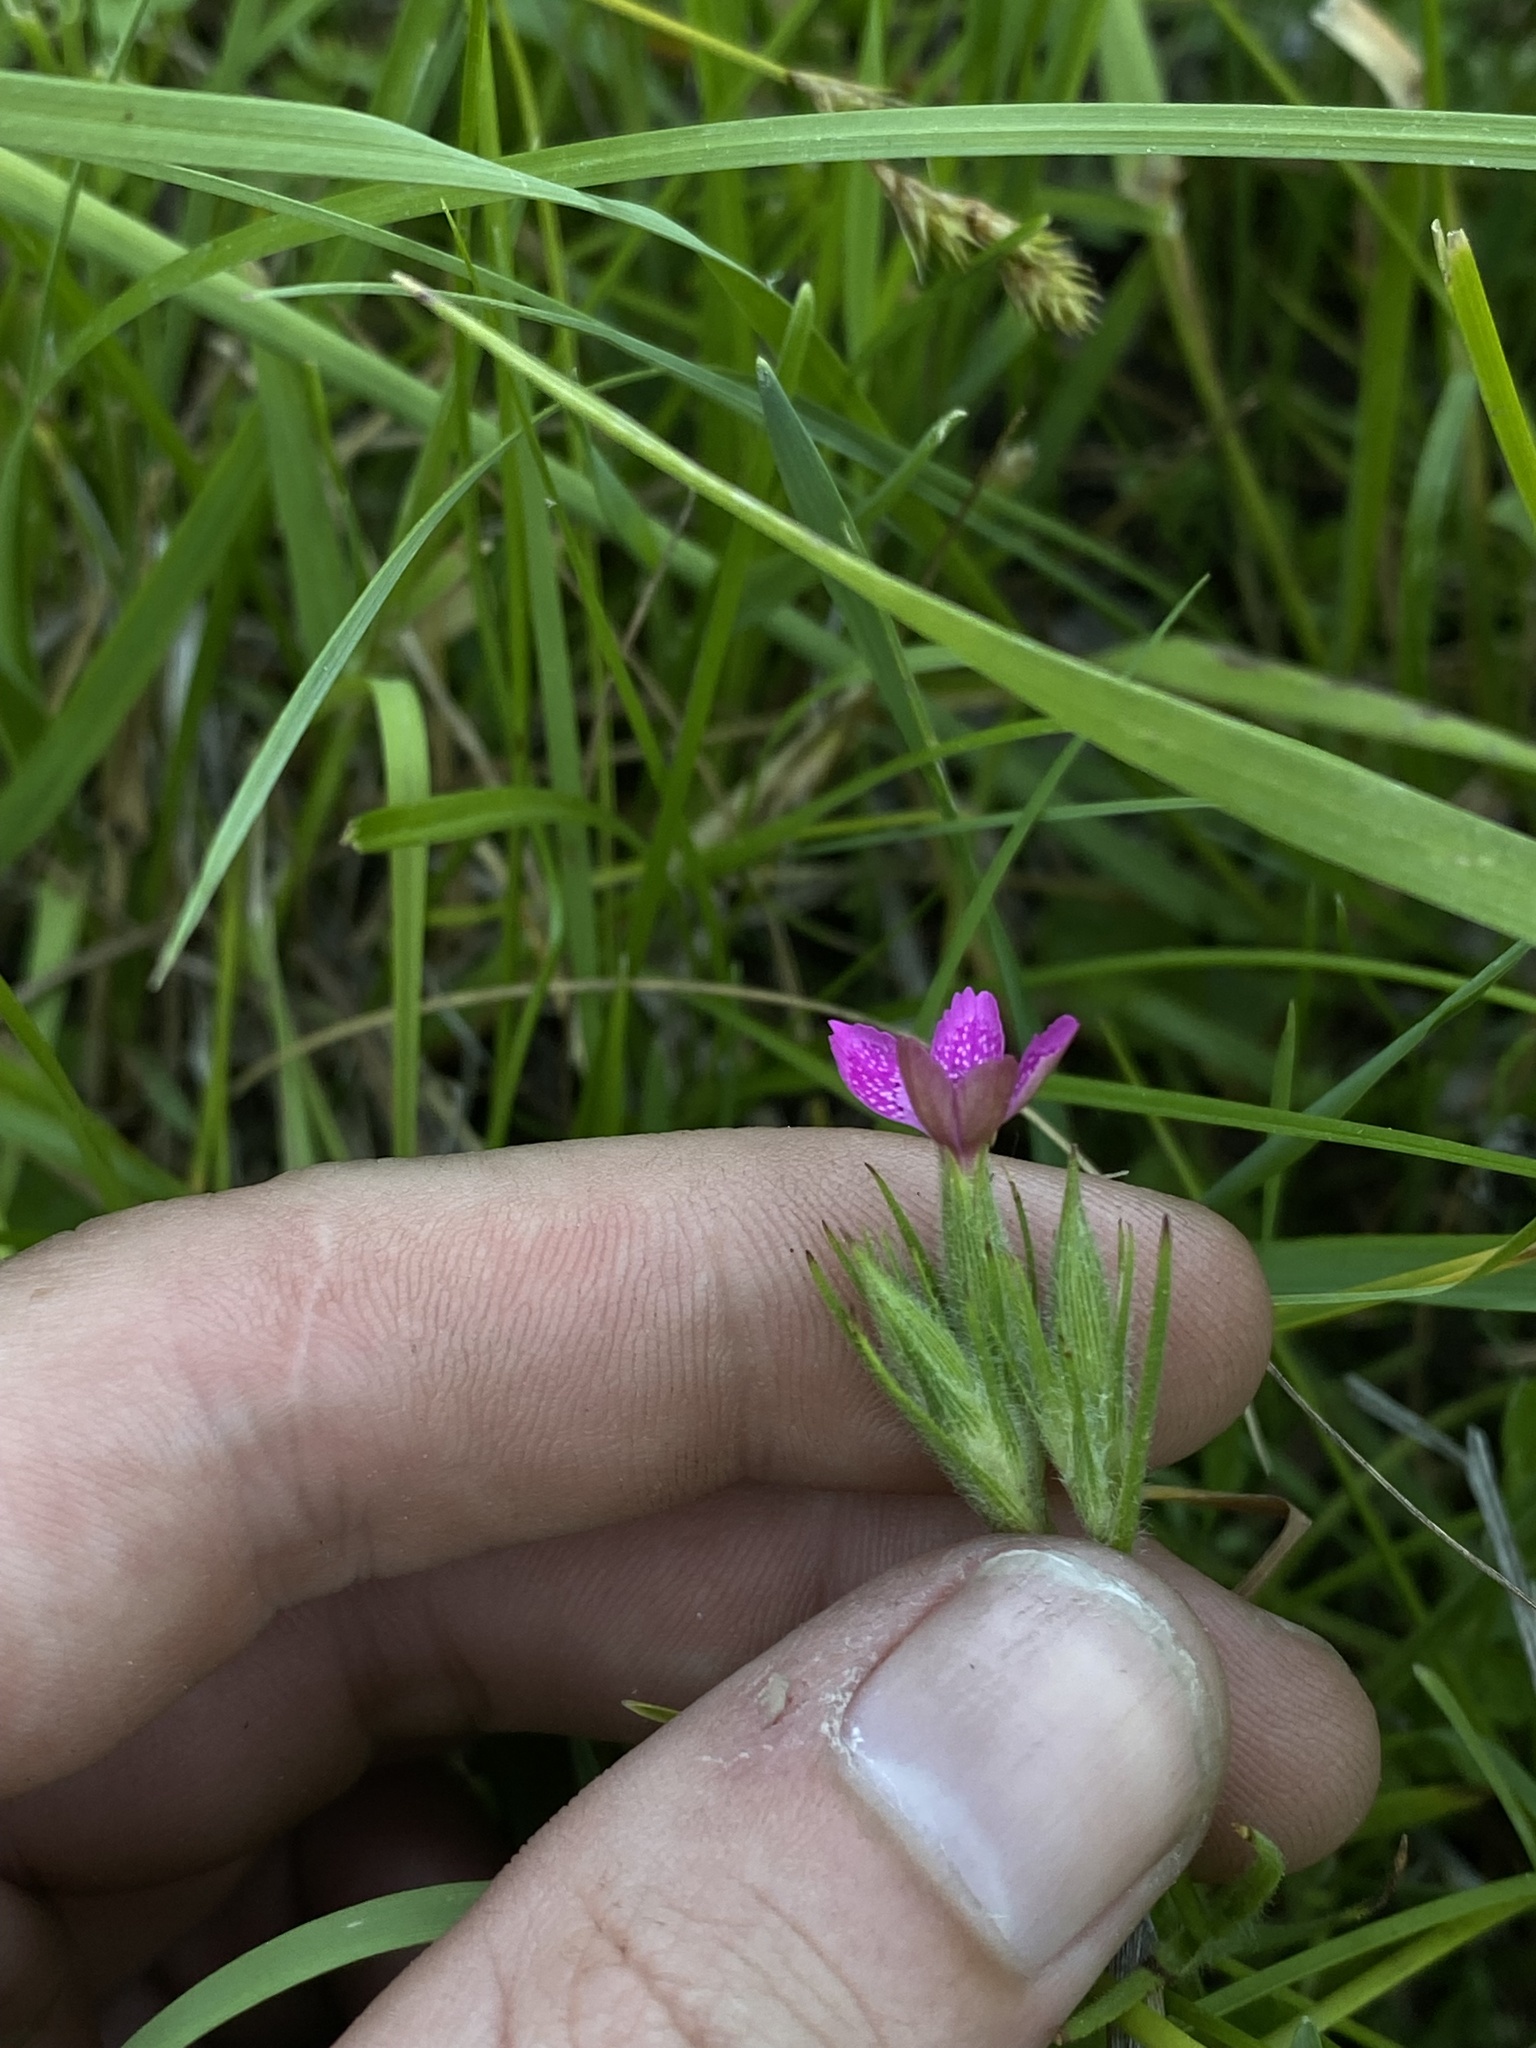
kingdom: Plantae
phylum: Tracheophyta
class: Magnoliopsida
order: Caryophyllales
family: Caryophyllaceae
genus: Dianthus
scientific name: Dianthus armeria
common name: Deptford pink
